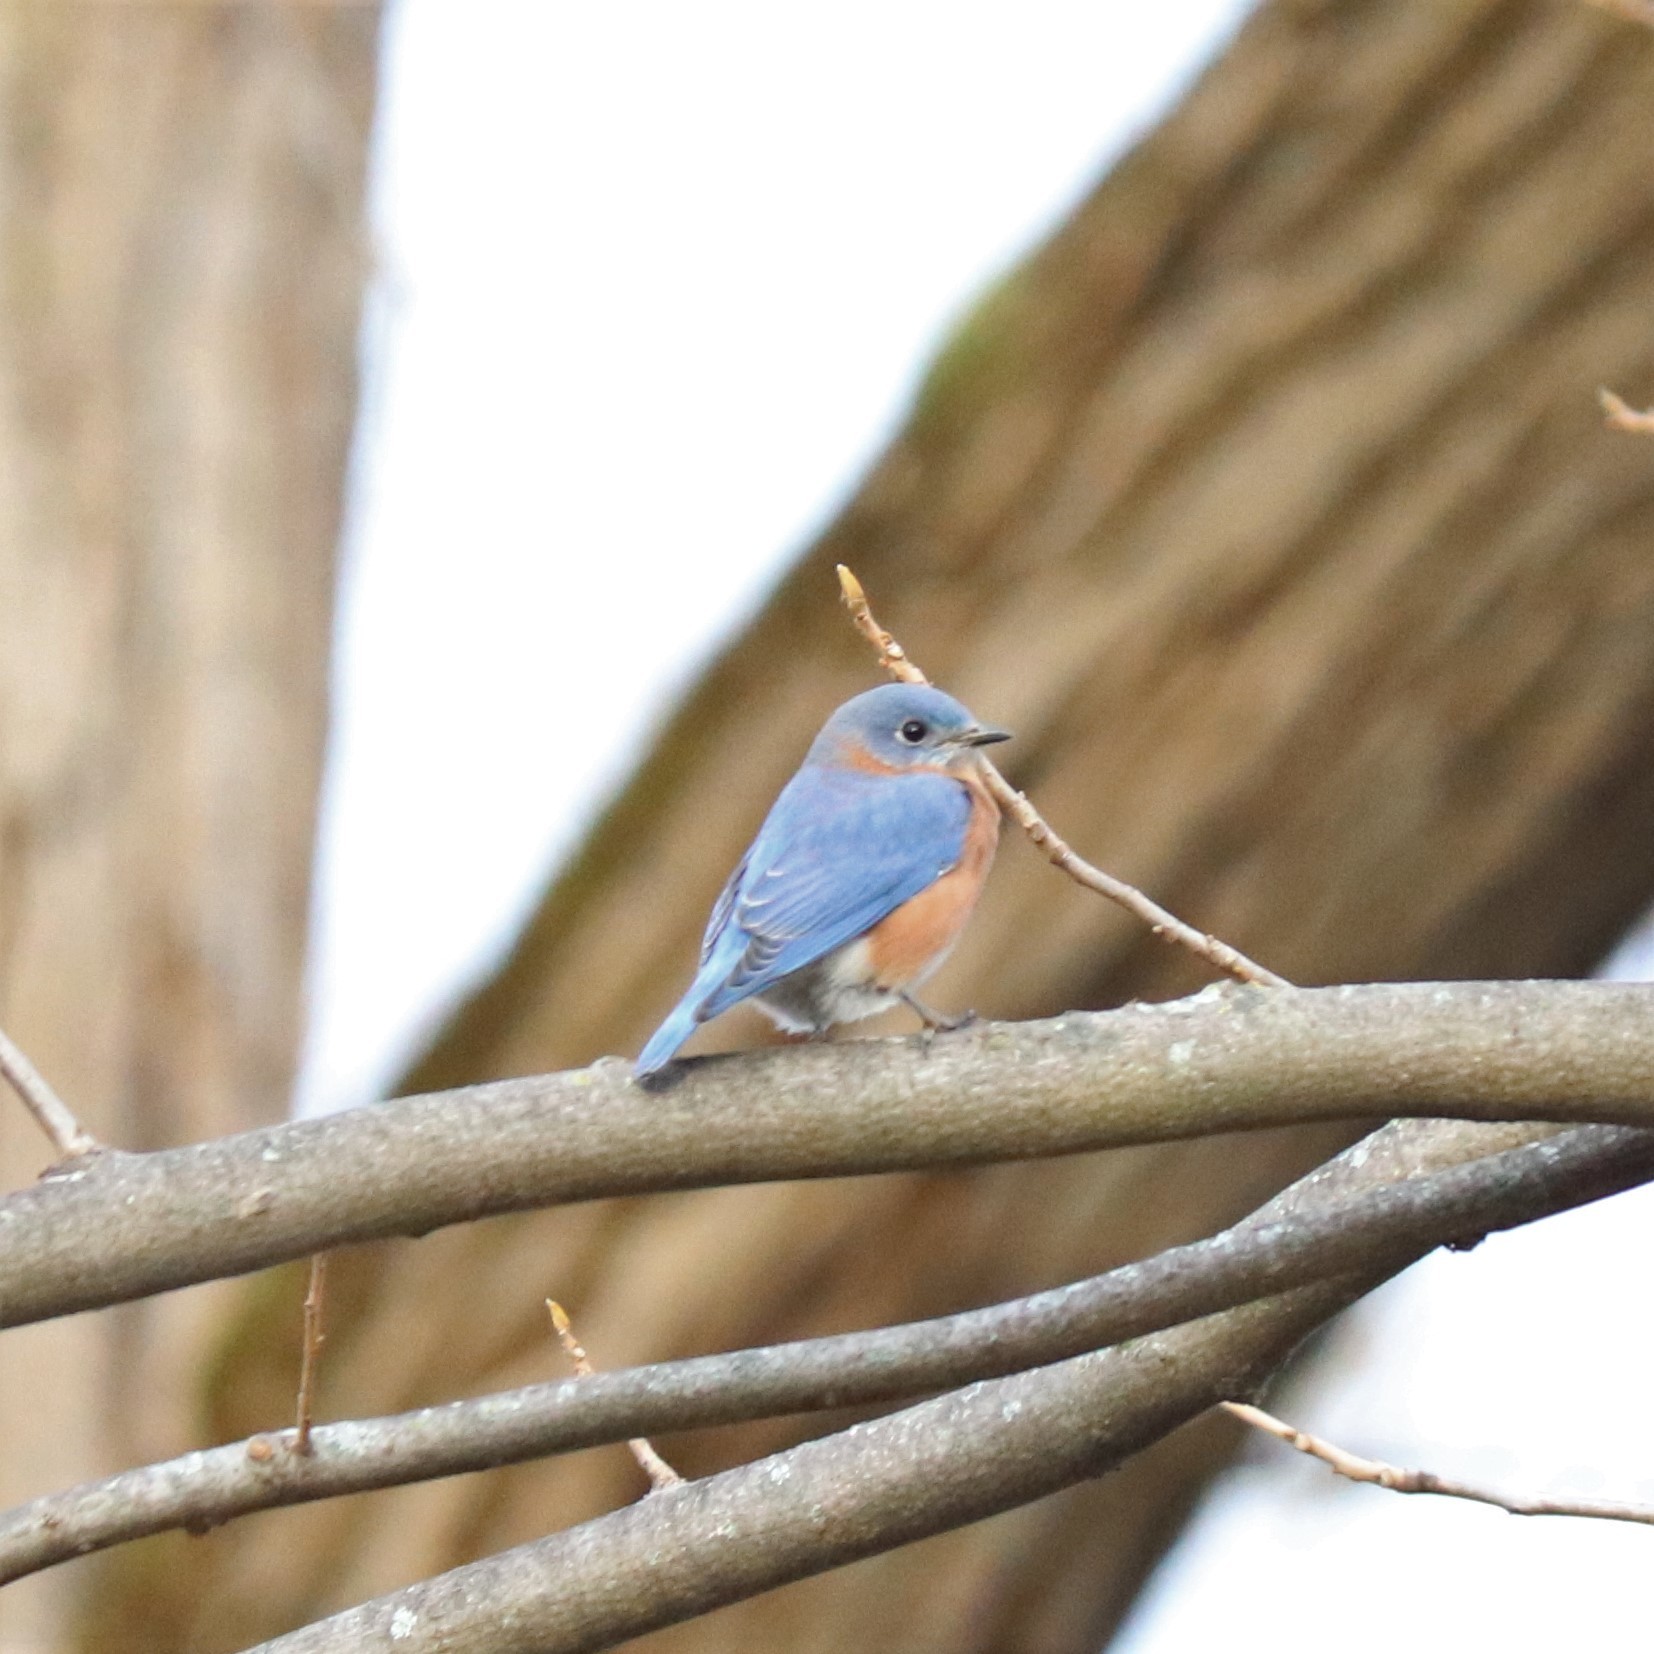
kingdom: Animalia
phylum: Chordata
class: Aves
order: Passeriformes
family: Turdidae
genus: Sialia
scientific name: Sialia sialis
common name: Eastern bluebird
